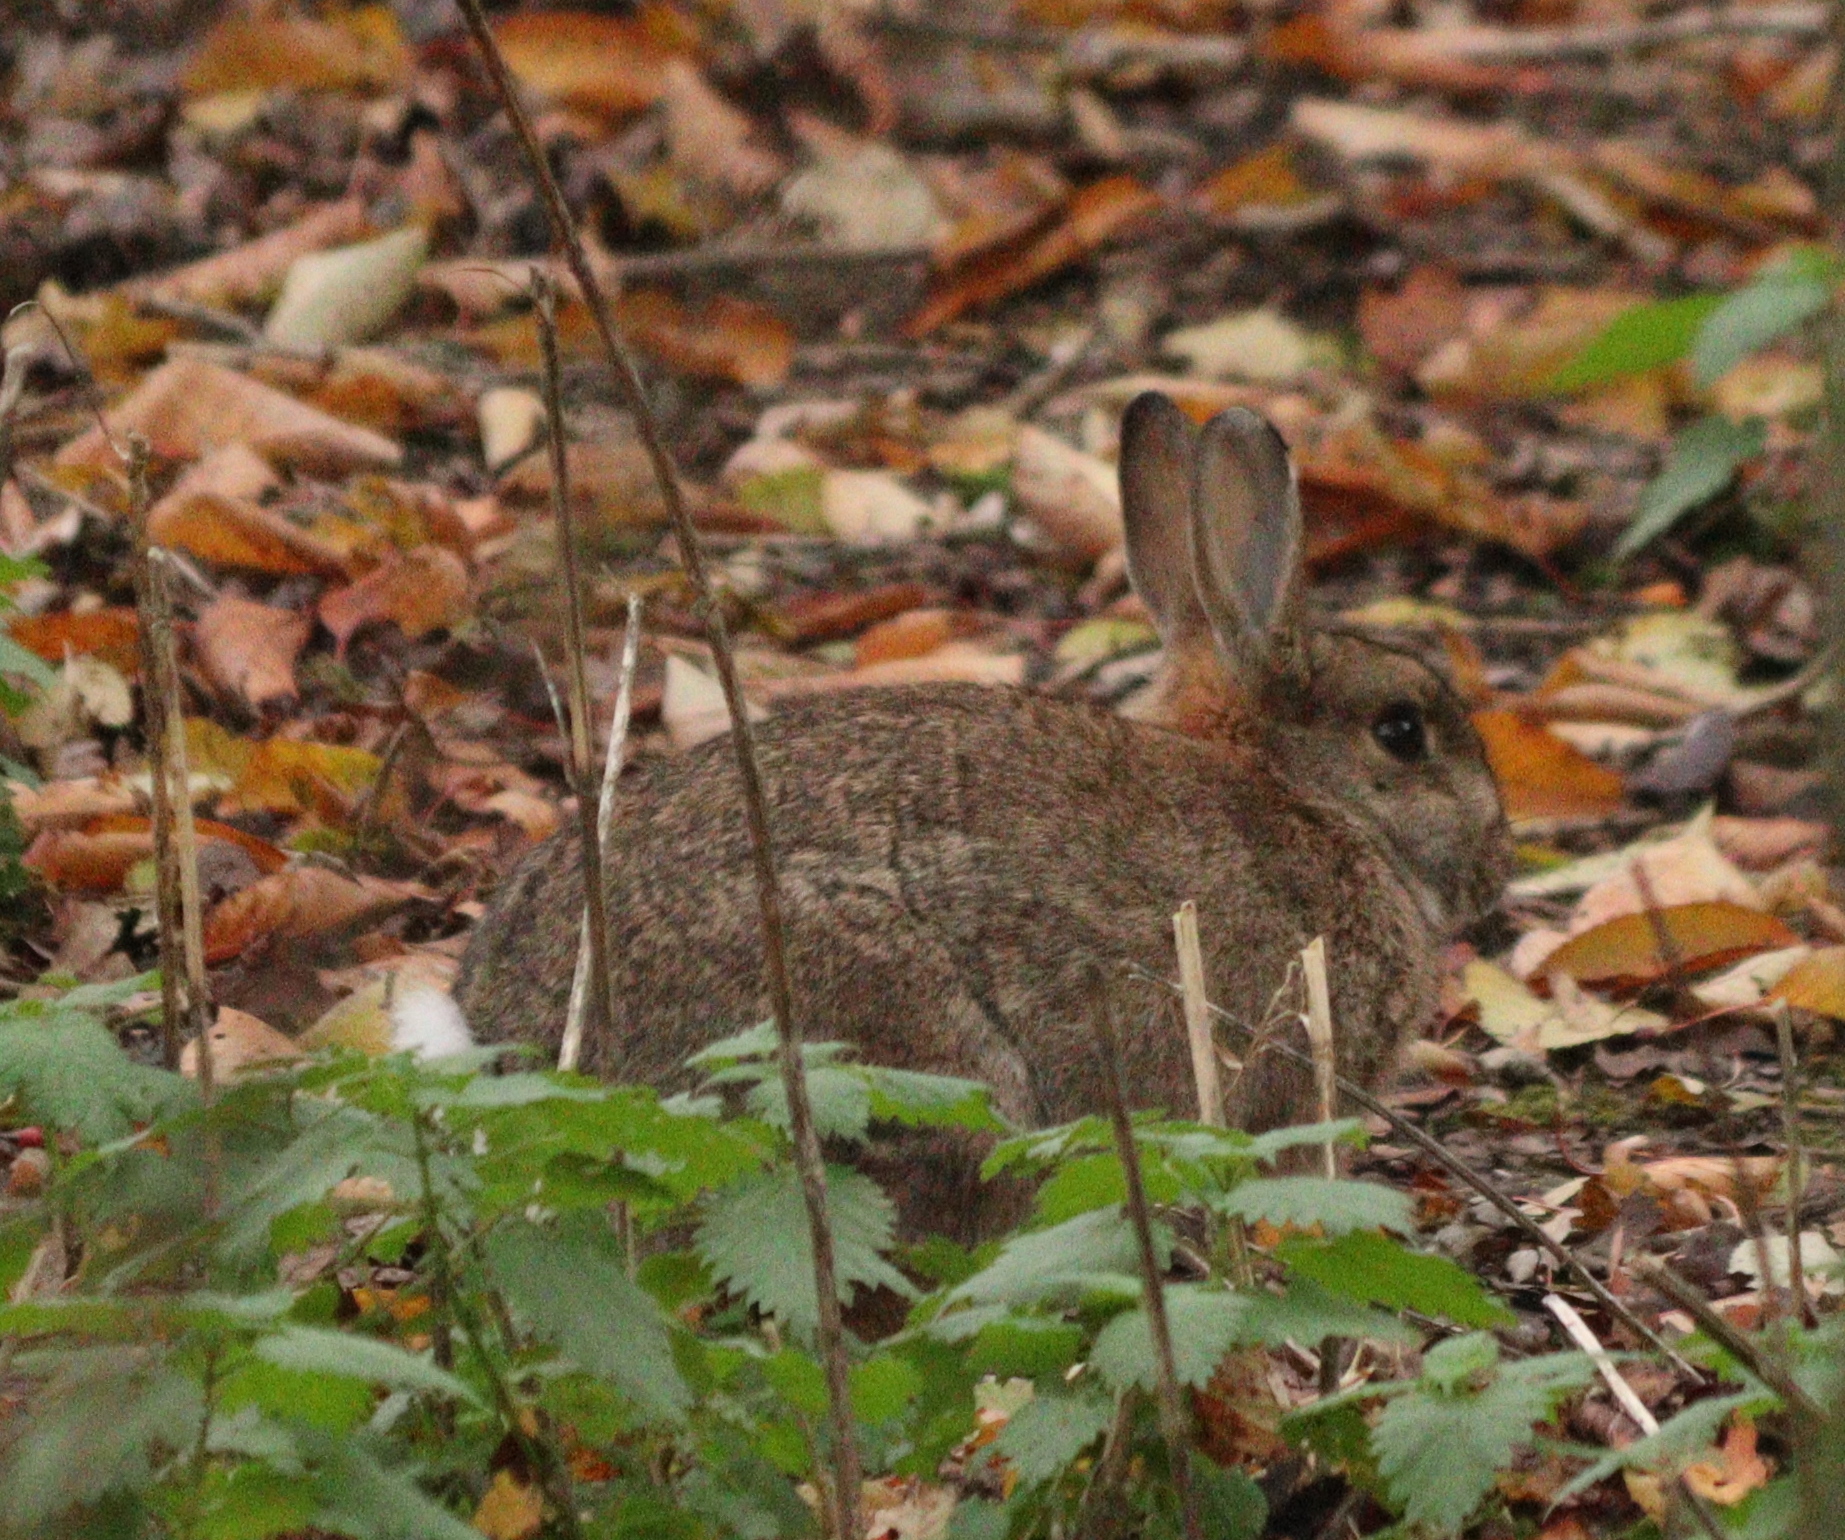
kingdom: Animalia
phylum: Chordata
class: Mammalia
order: Lagomorpha
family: Leporidae
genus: Oryctolagus
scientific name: Oryctolagus cuniculus
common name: European rabbit
